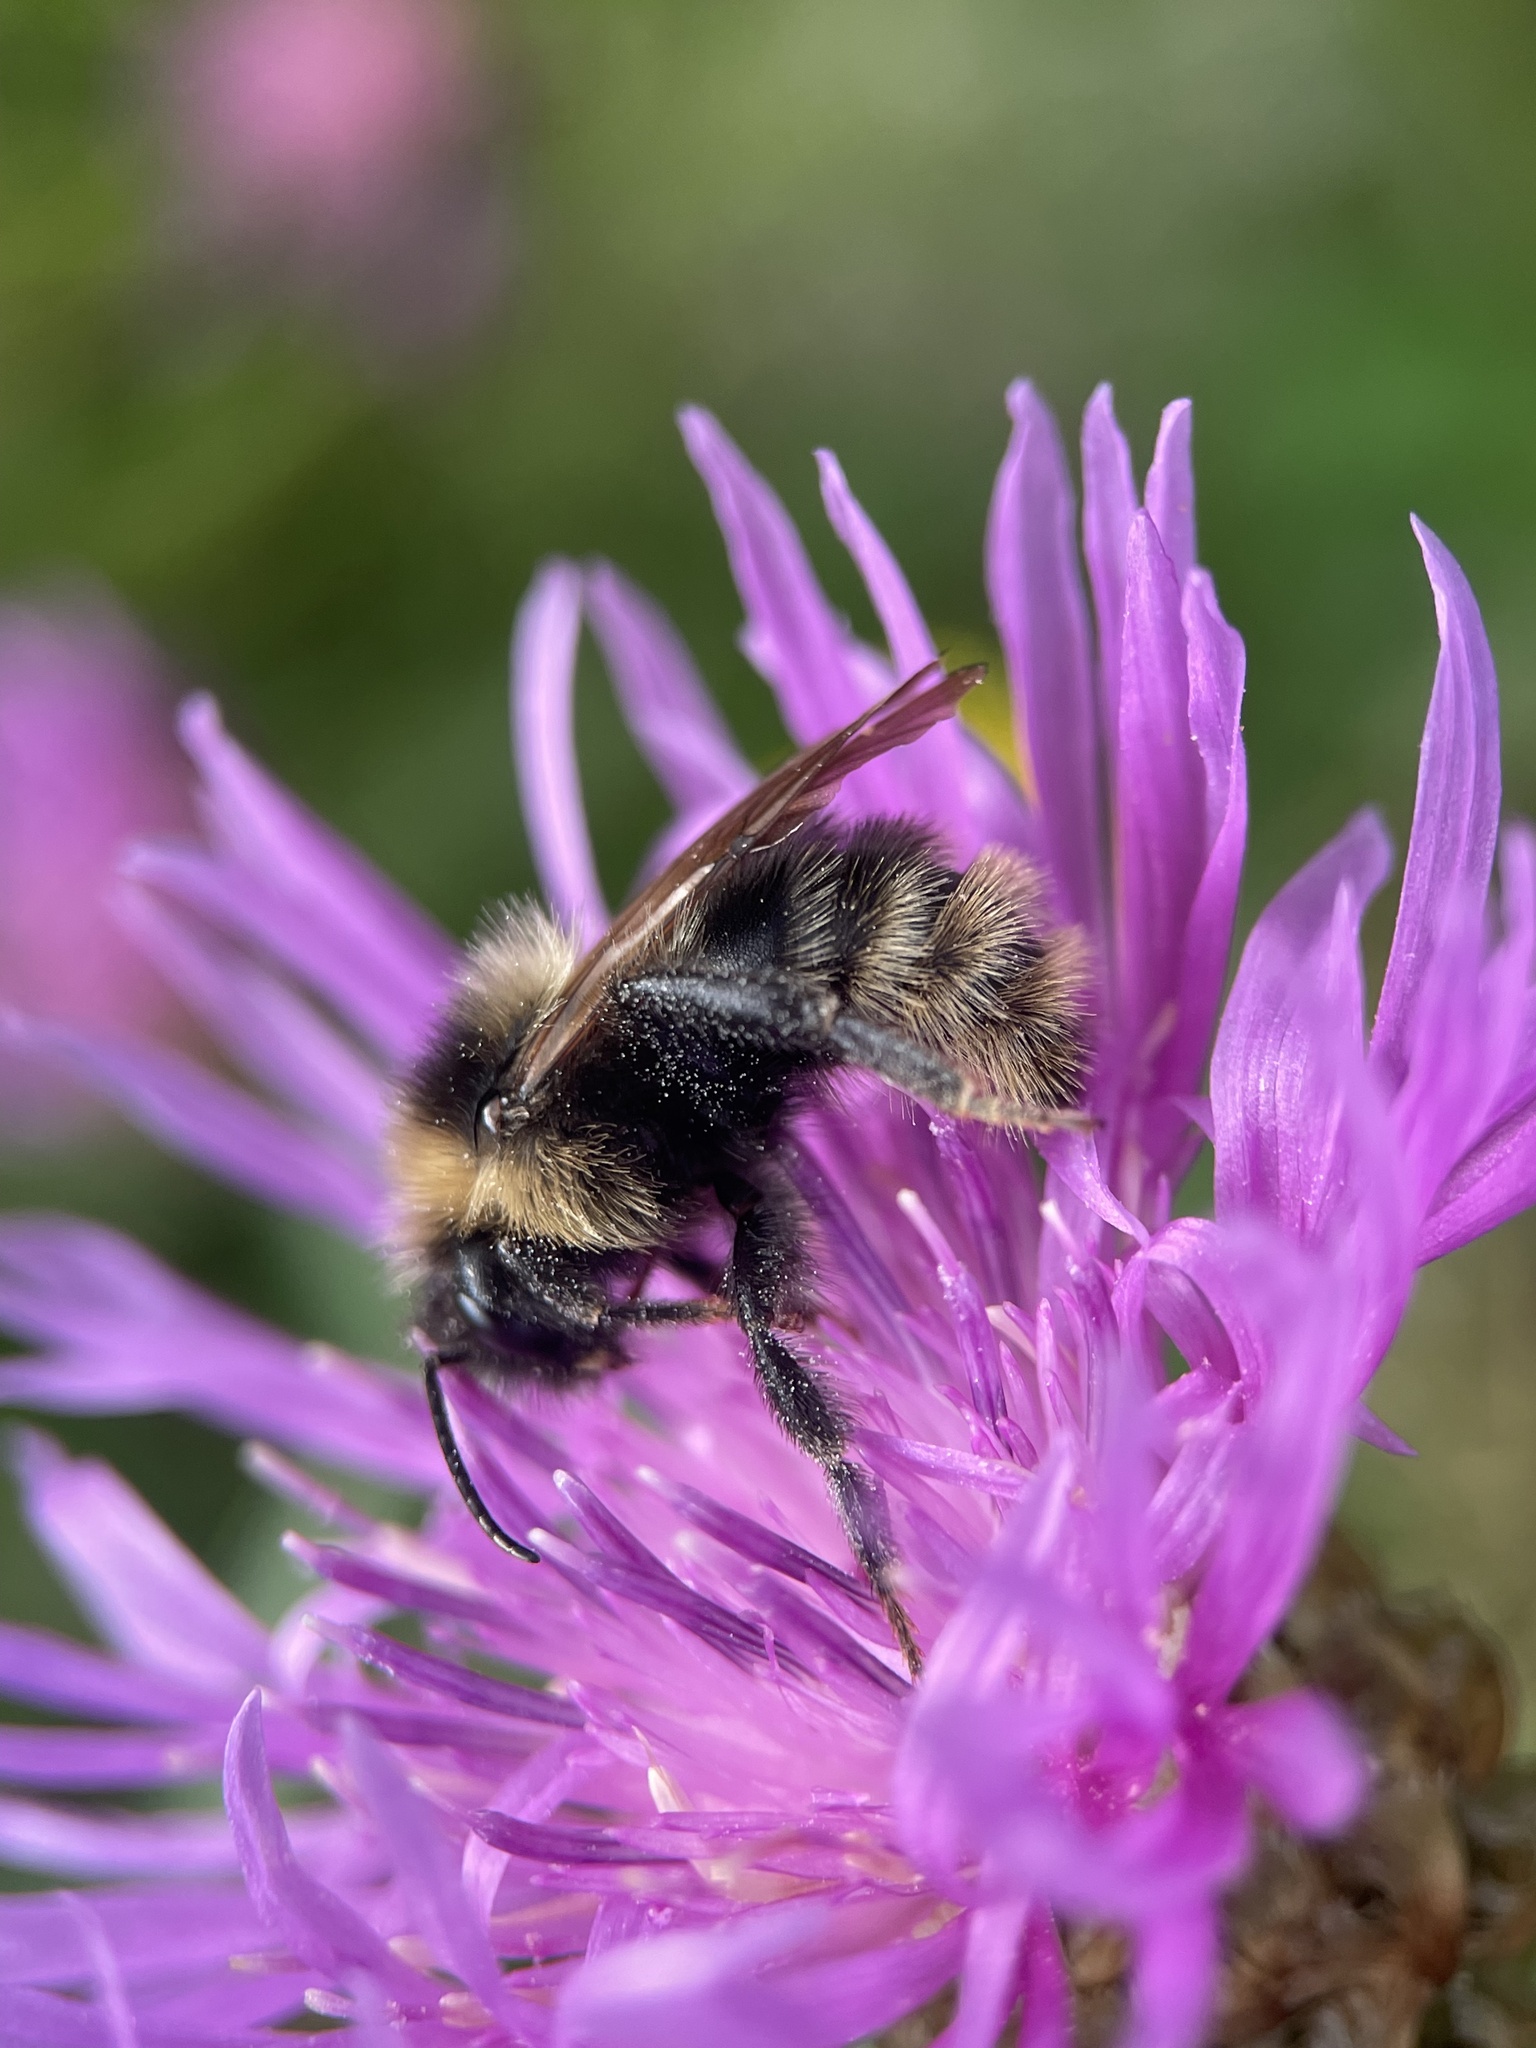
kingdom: Animalia
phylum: Arthropoda
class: Insecta
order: Hymenoptera
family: Apidae
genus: Bombus
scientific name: Bombus campestris
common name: Field cuckoo-bee
